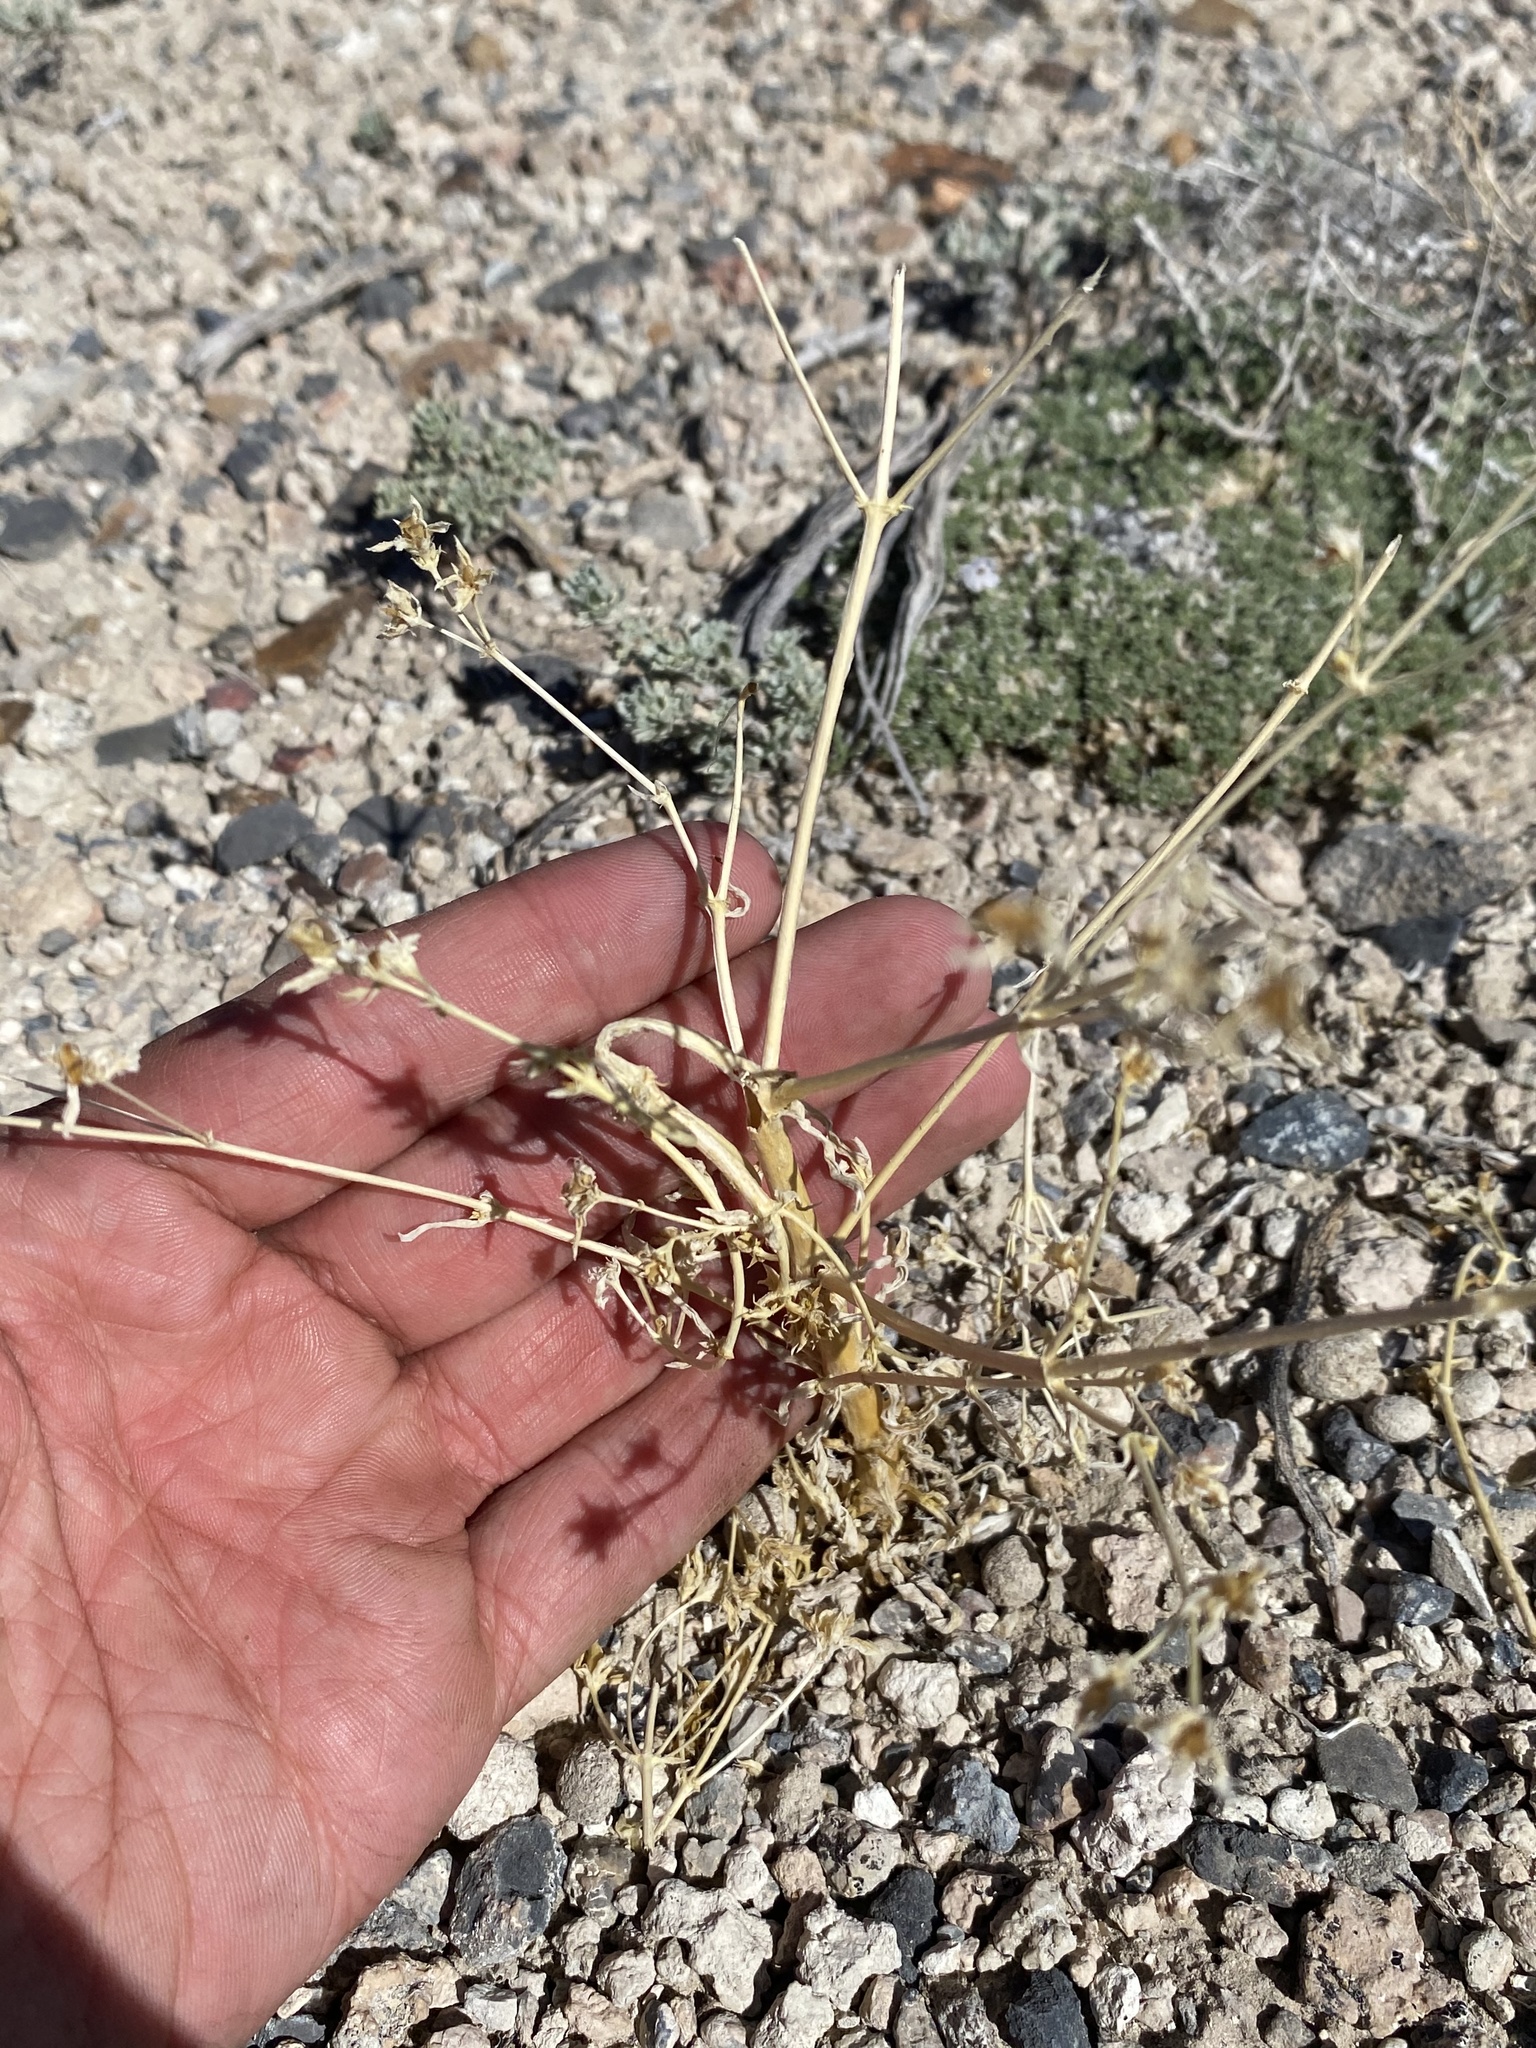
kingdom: Plantae
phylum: Tracheophyta
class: Magnoliopsida
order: Gentianales
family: Gentianaceae
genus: Frasera
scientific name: Frasera albomarginata
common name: Desert frasera
